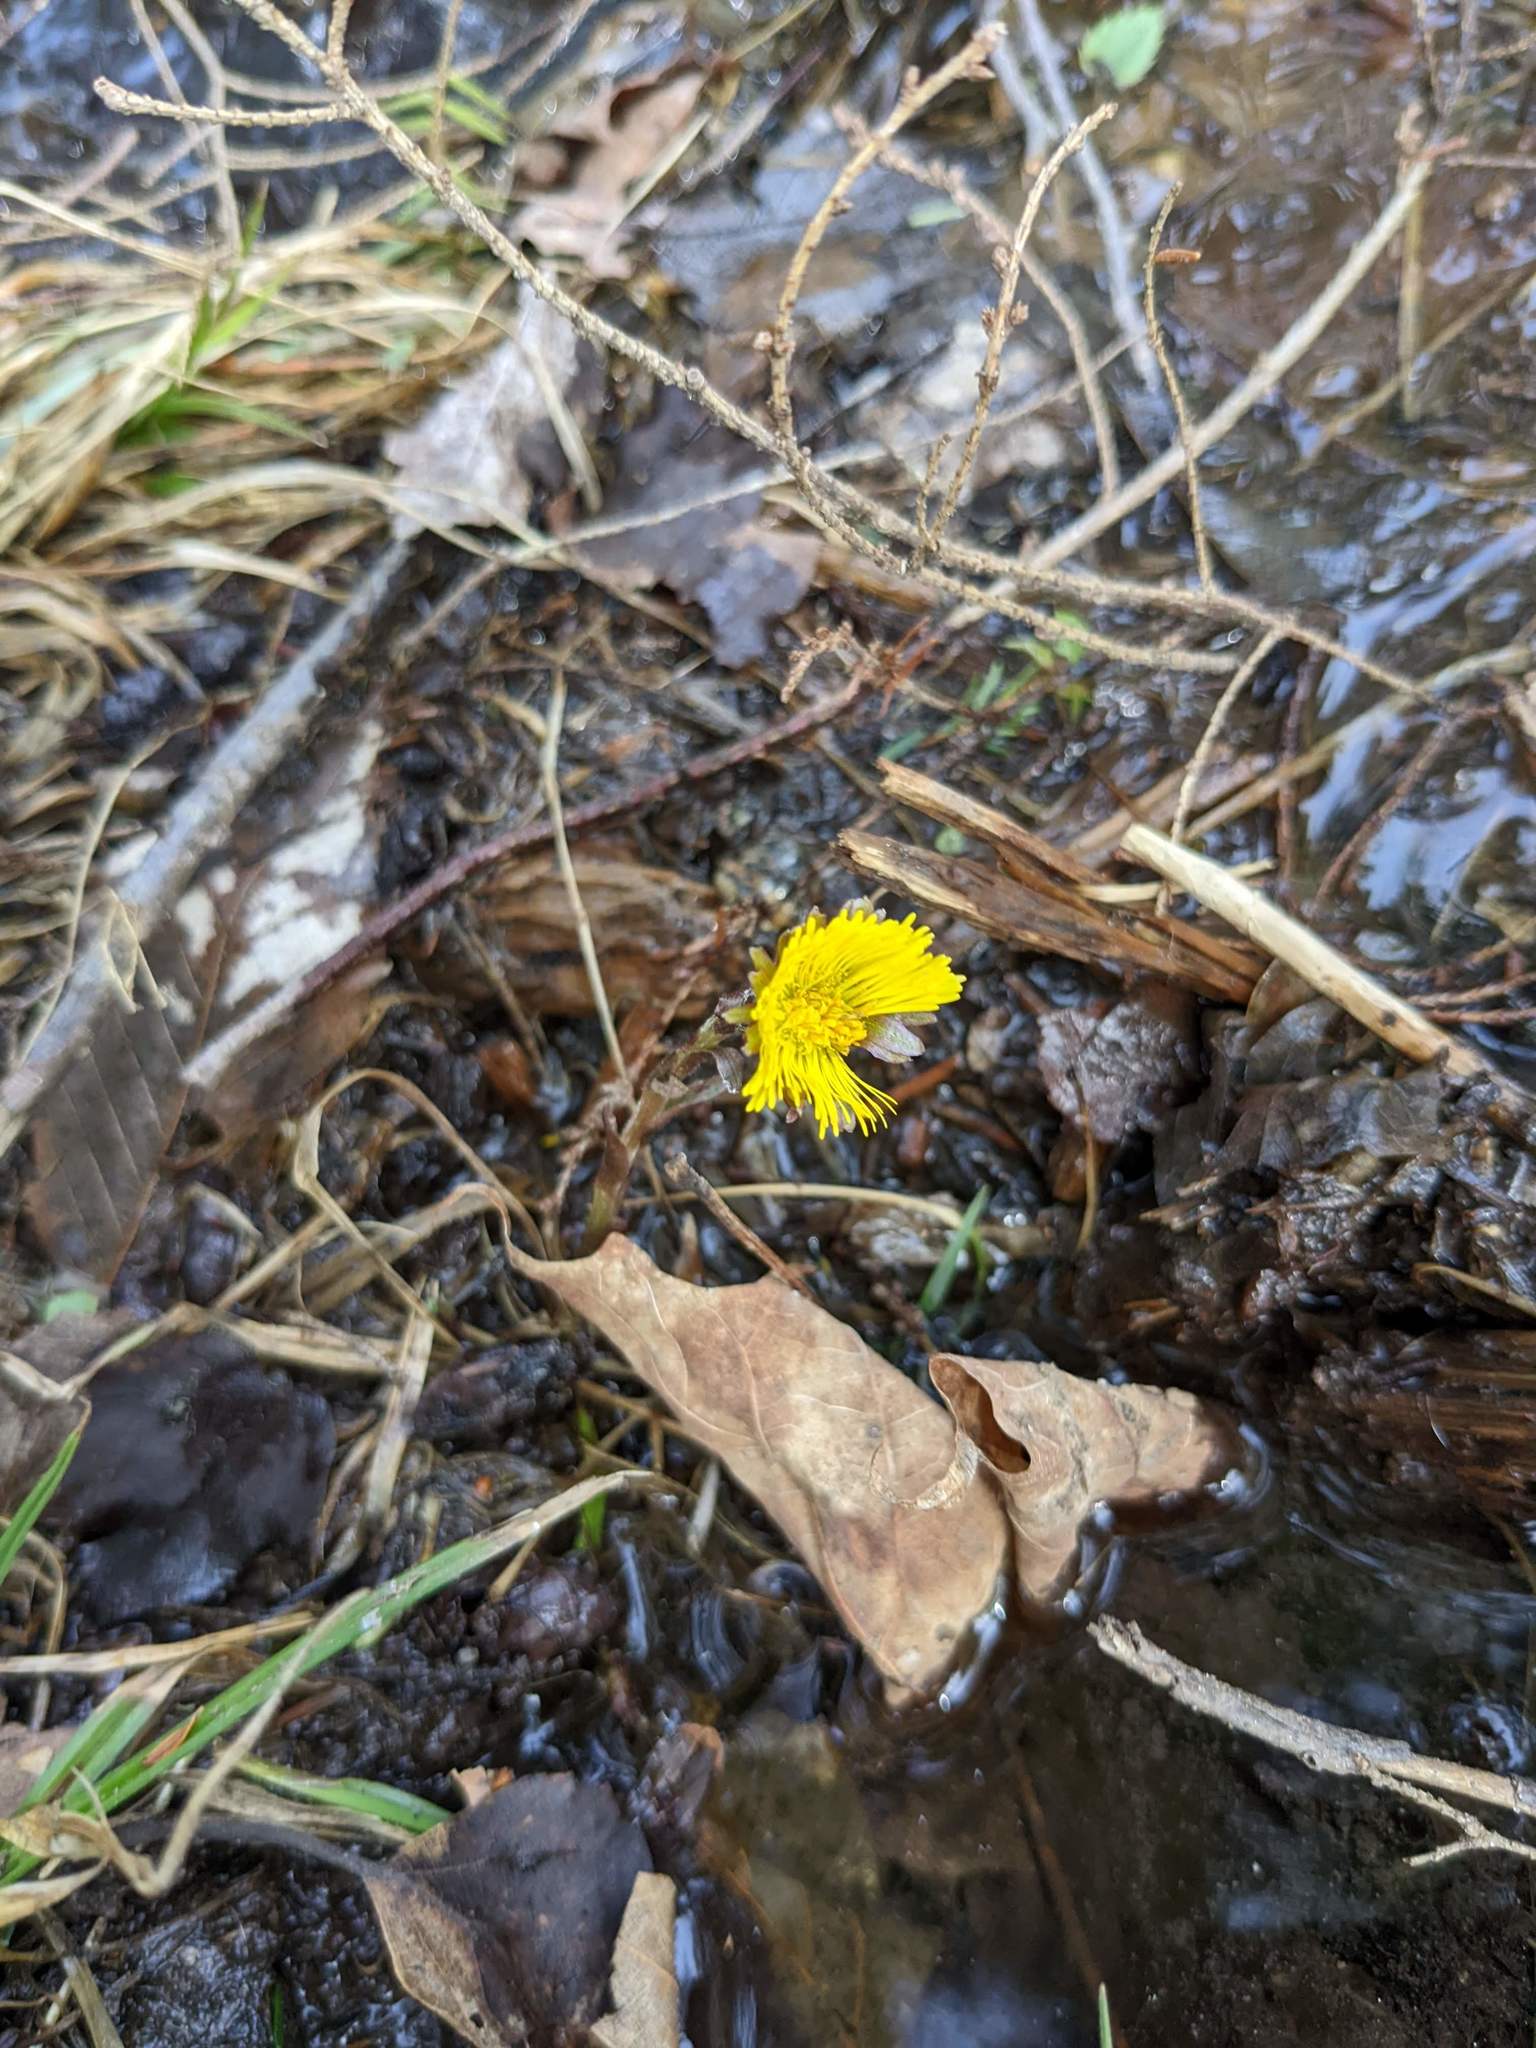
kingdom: Plantae
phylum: Tracheophyta
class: Magnoliopsida
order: Asterales
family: Asteraceae
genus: Tussilago
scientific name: Tussilago farfara
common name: Coltsfoot
